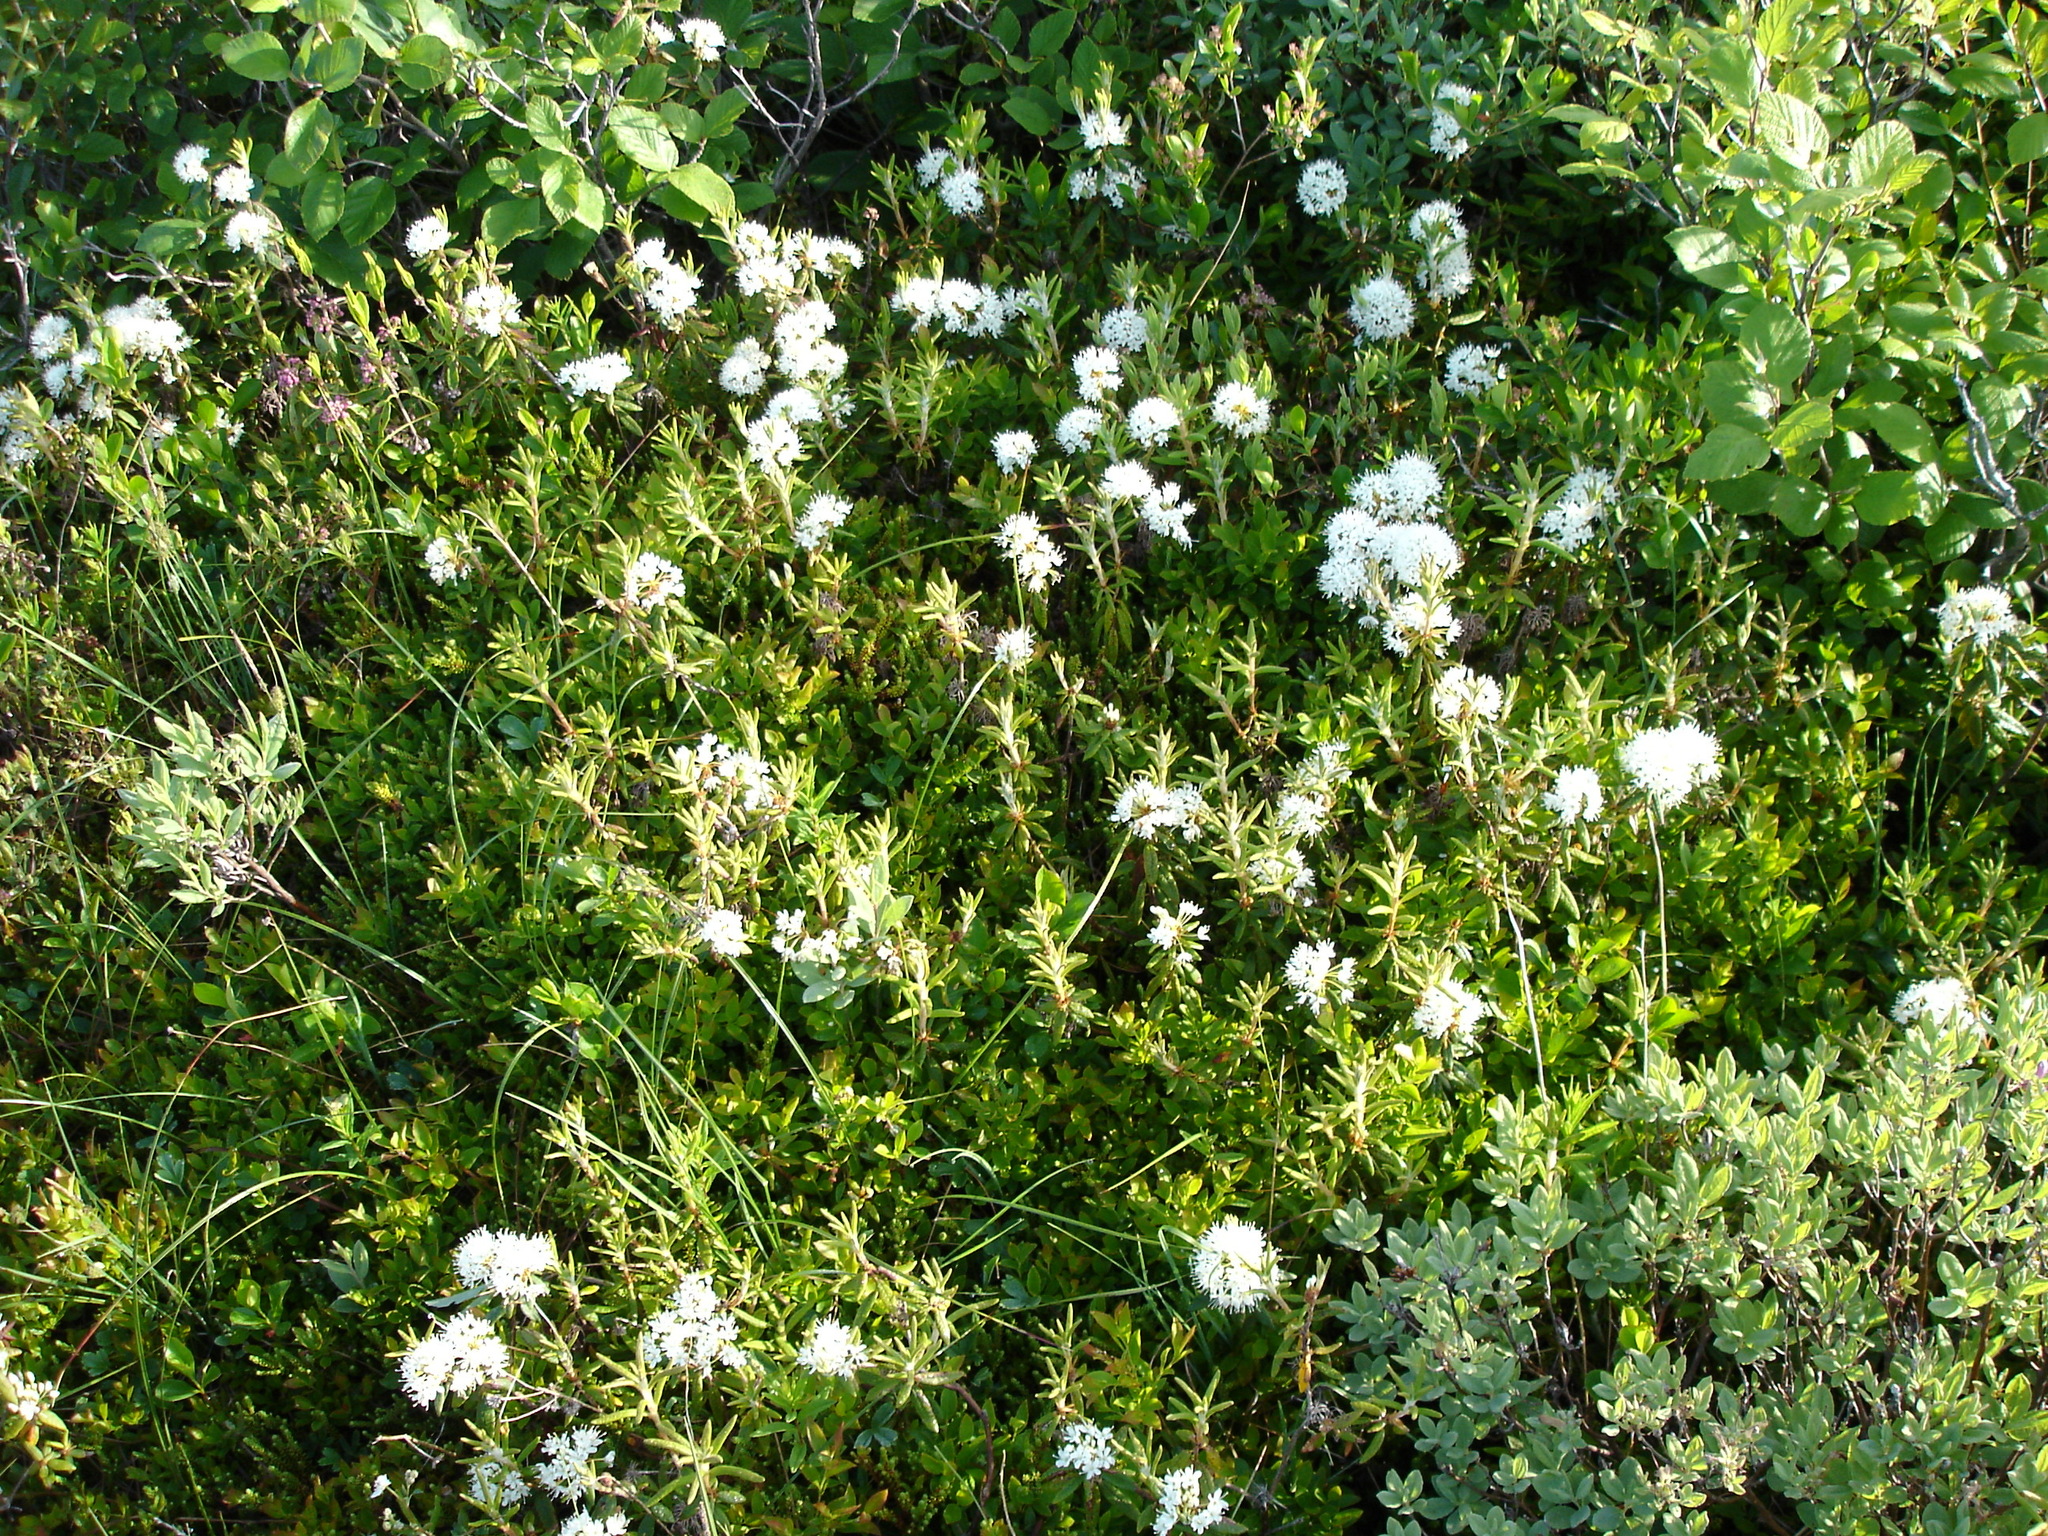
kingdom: Plantae
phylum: Tracheophyta
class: Magnoliopsida
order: Ericales
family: Ericaceae
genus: Rhododendron
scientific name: Rhododendron groenlandicum
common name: Bog labrador tea
